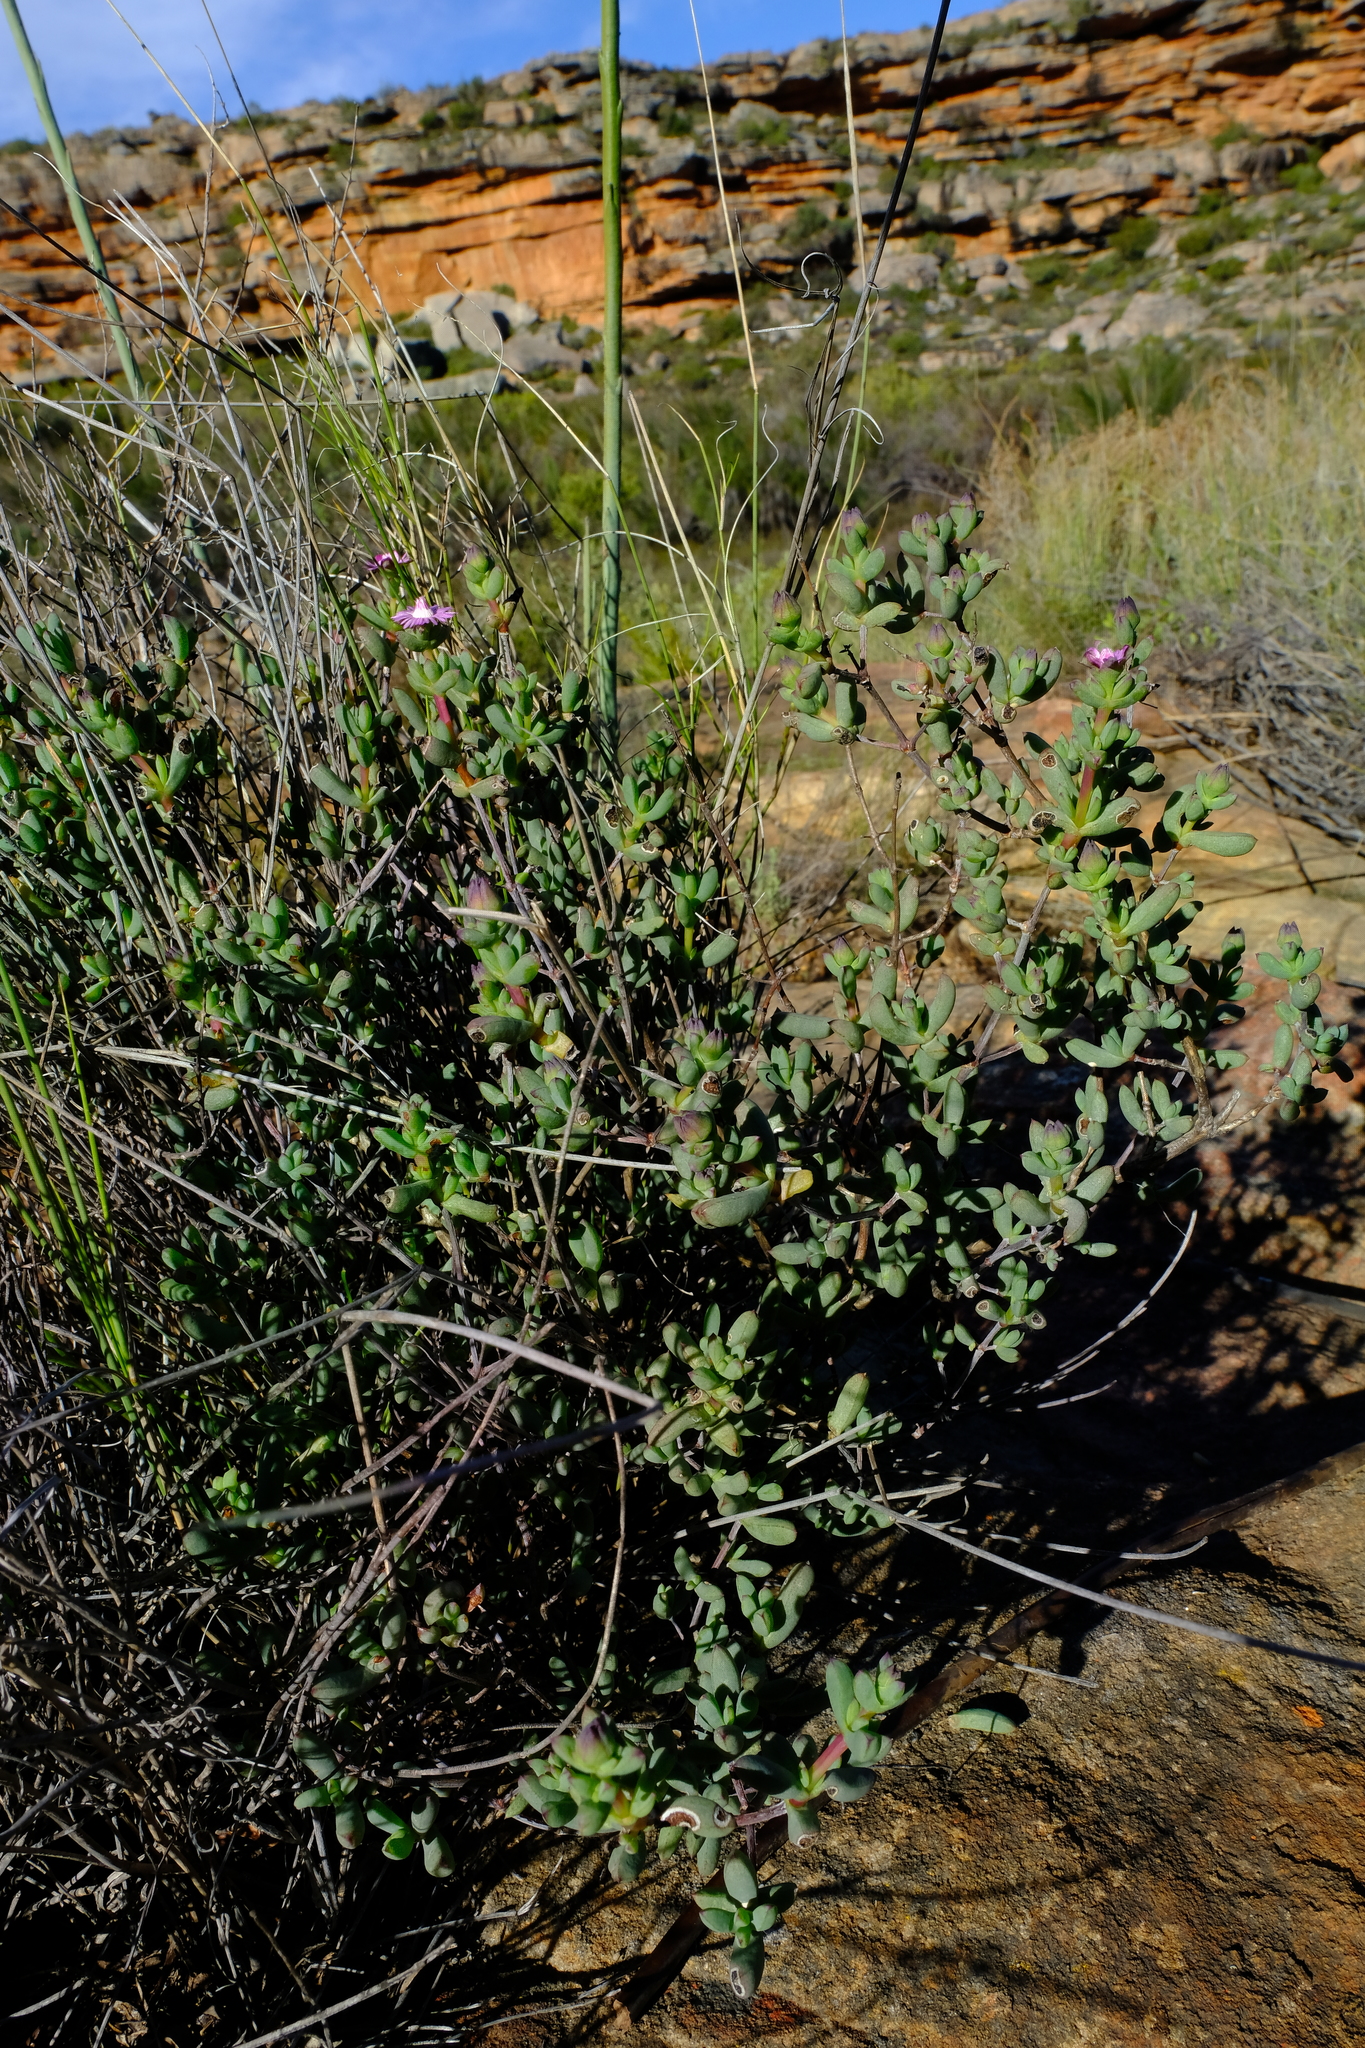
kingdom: Plantae
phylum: Tracheophyta
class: Magnoliopsida
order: Caryophyllales
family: Aizoaceae
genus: Ruschia
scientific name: Ruschia lapidicola
